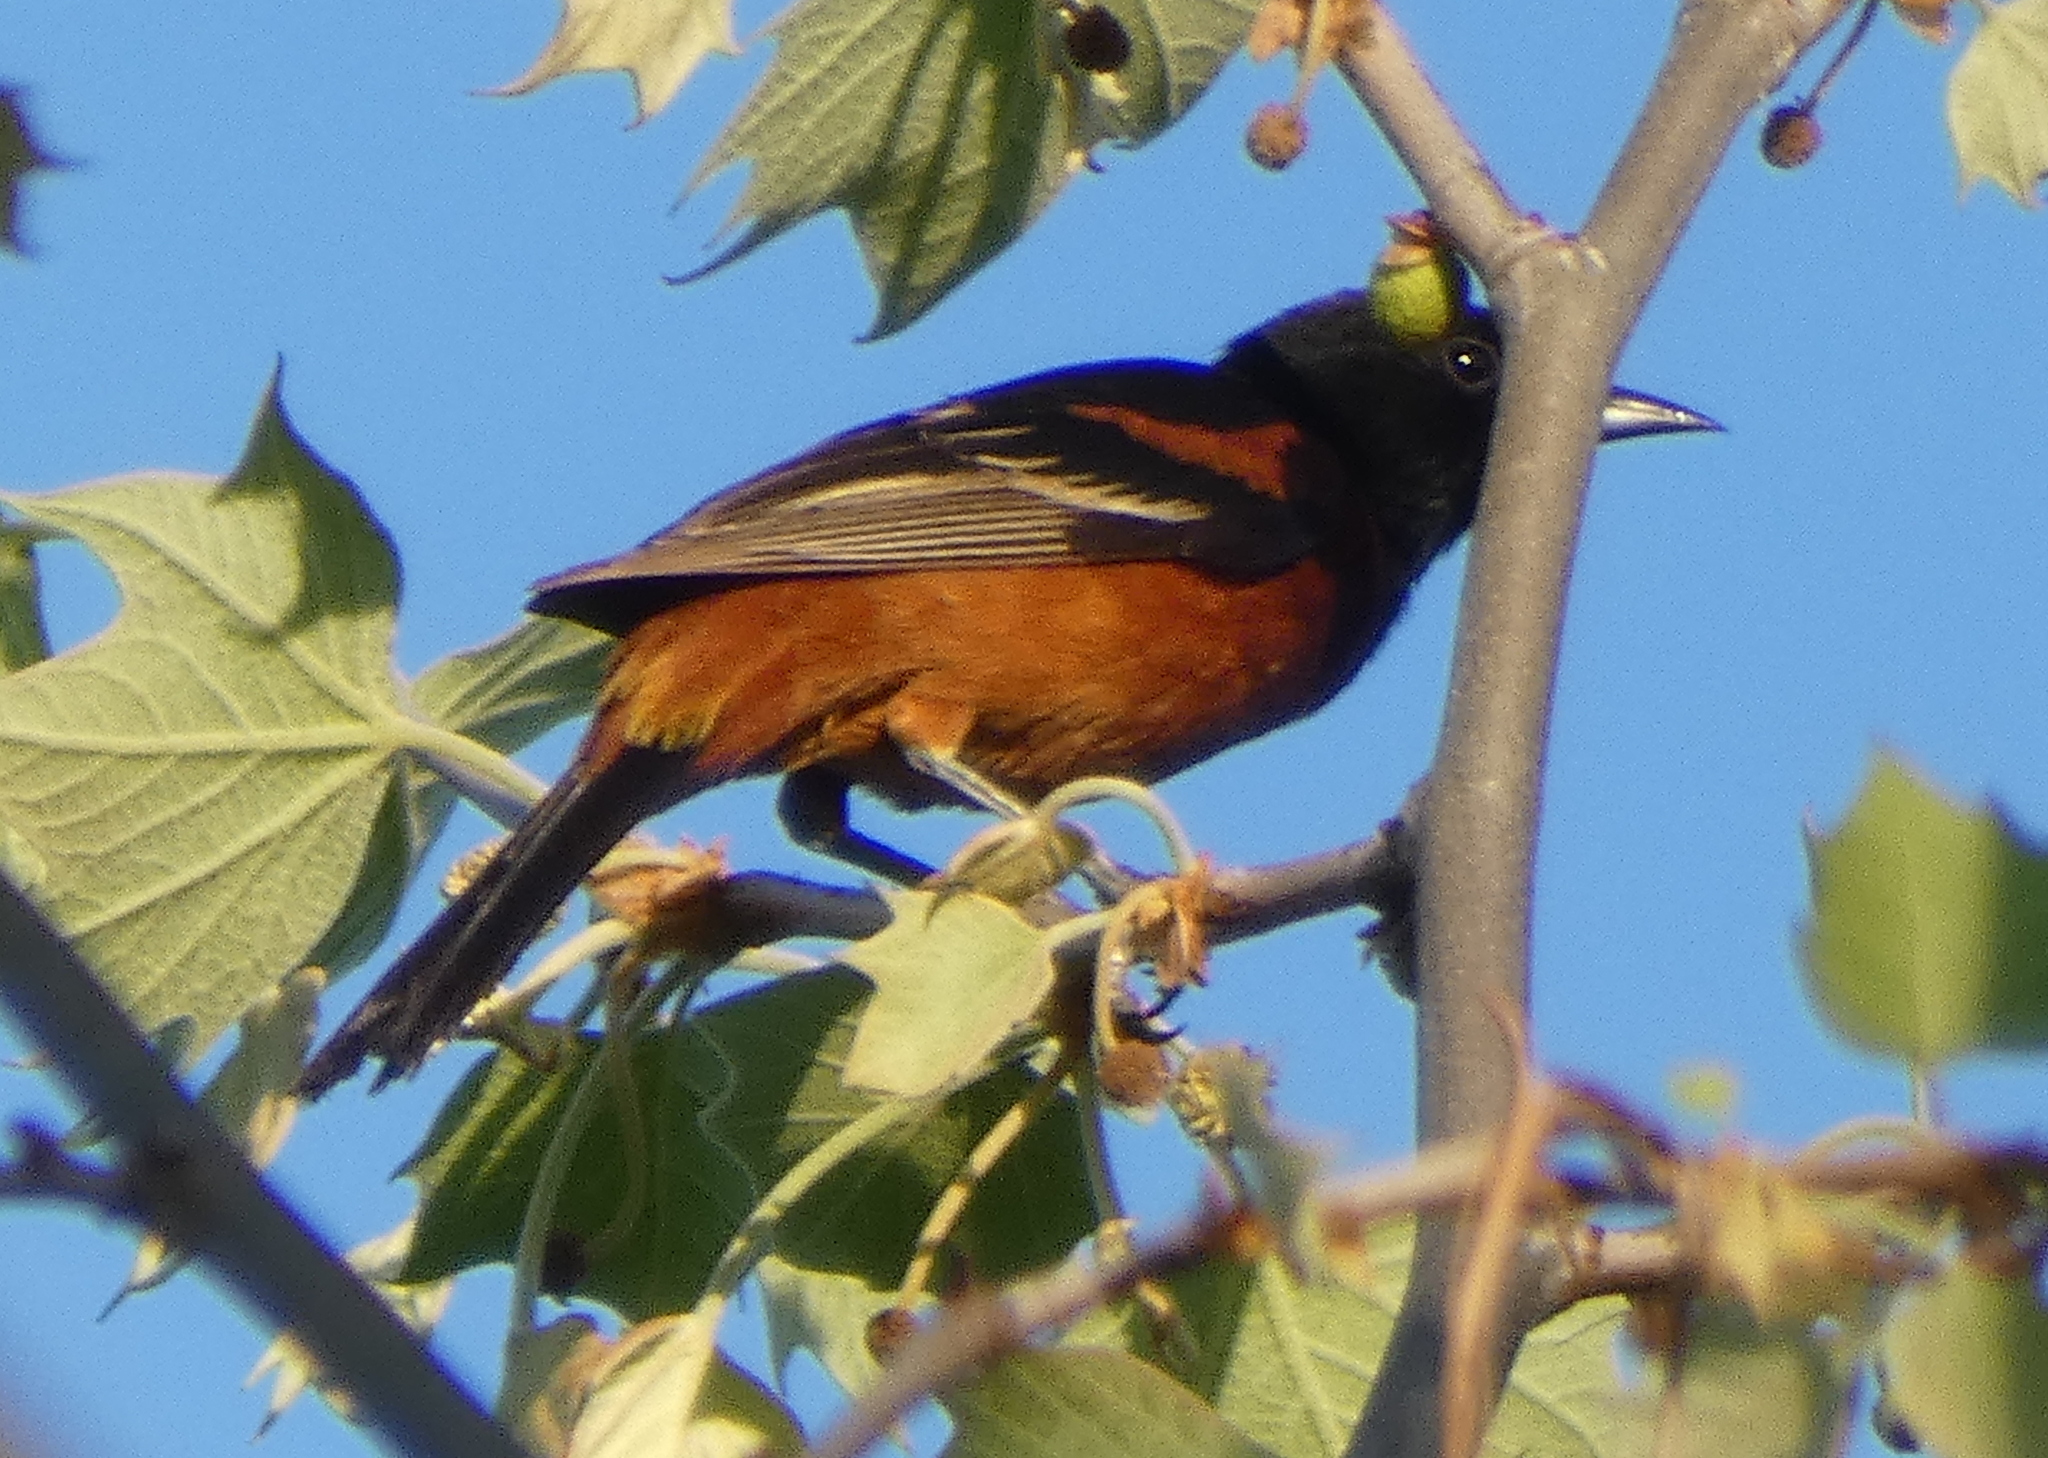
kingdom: Animalia
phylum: Chordata
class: Aves
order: Passeriformes
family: Icteridae
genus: Icterus
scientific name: Icterus spurius
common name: Orchard oriole
